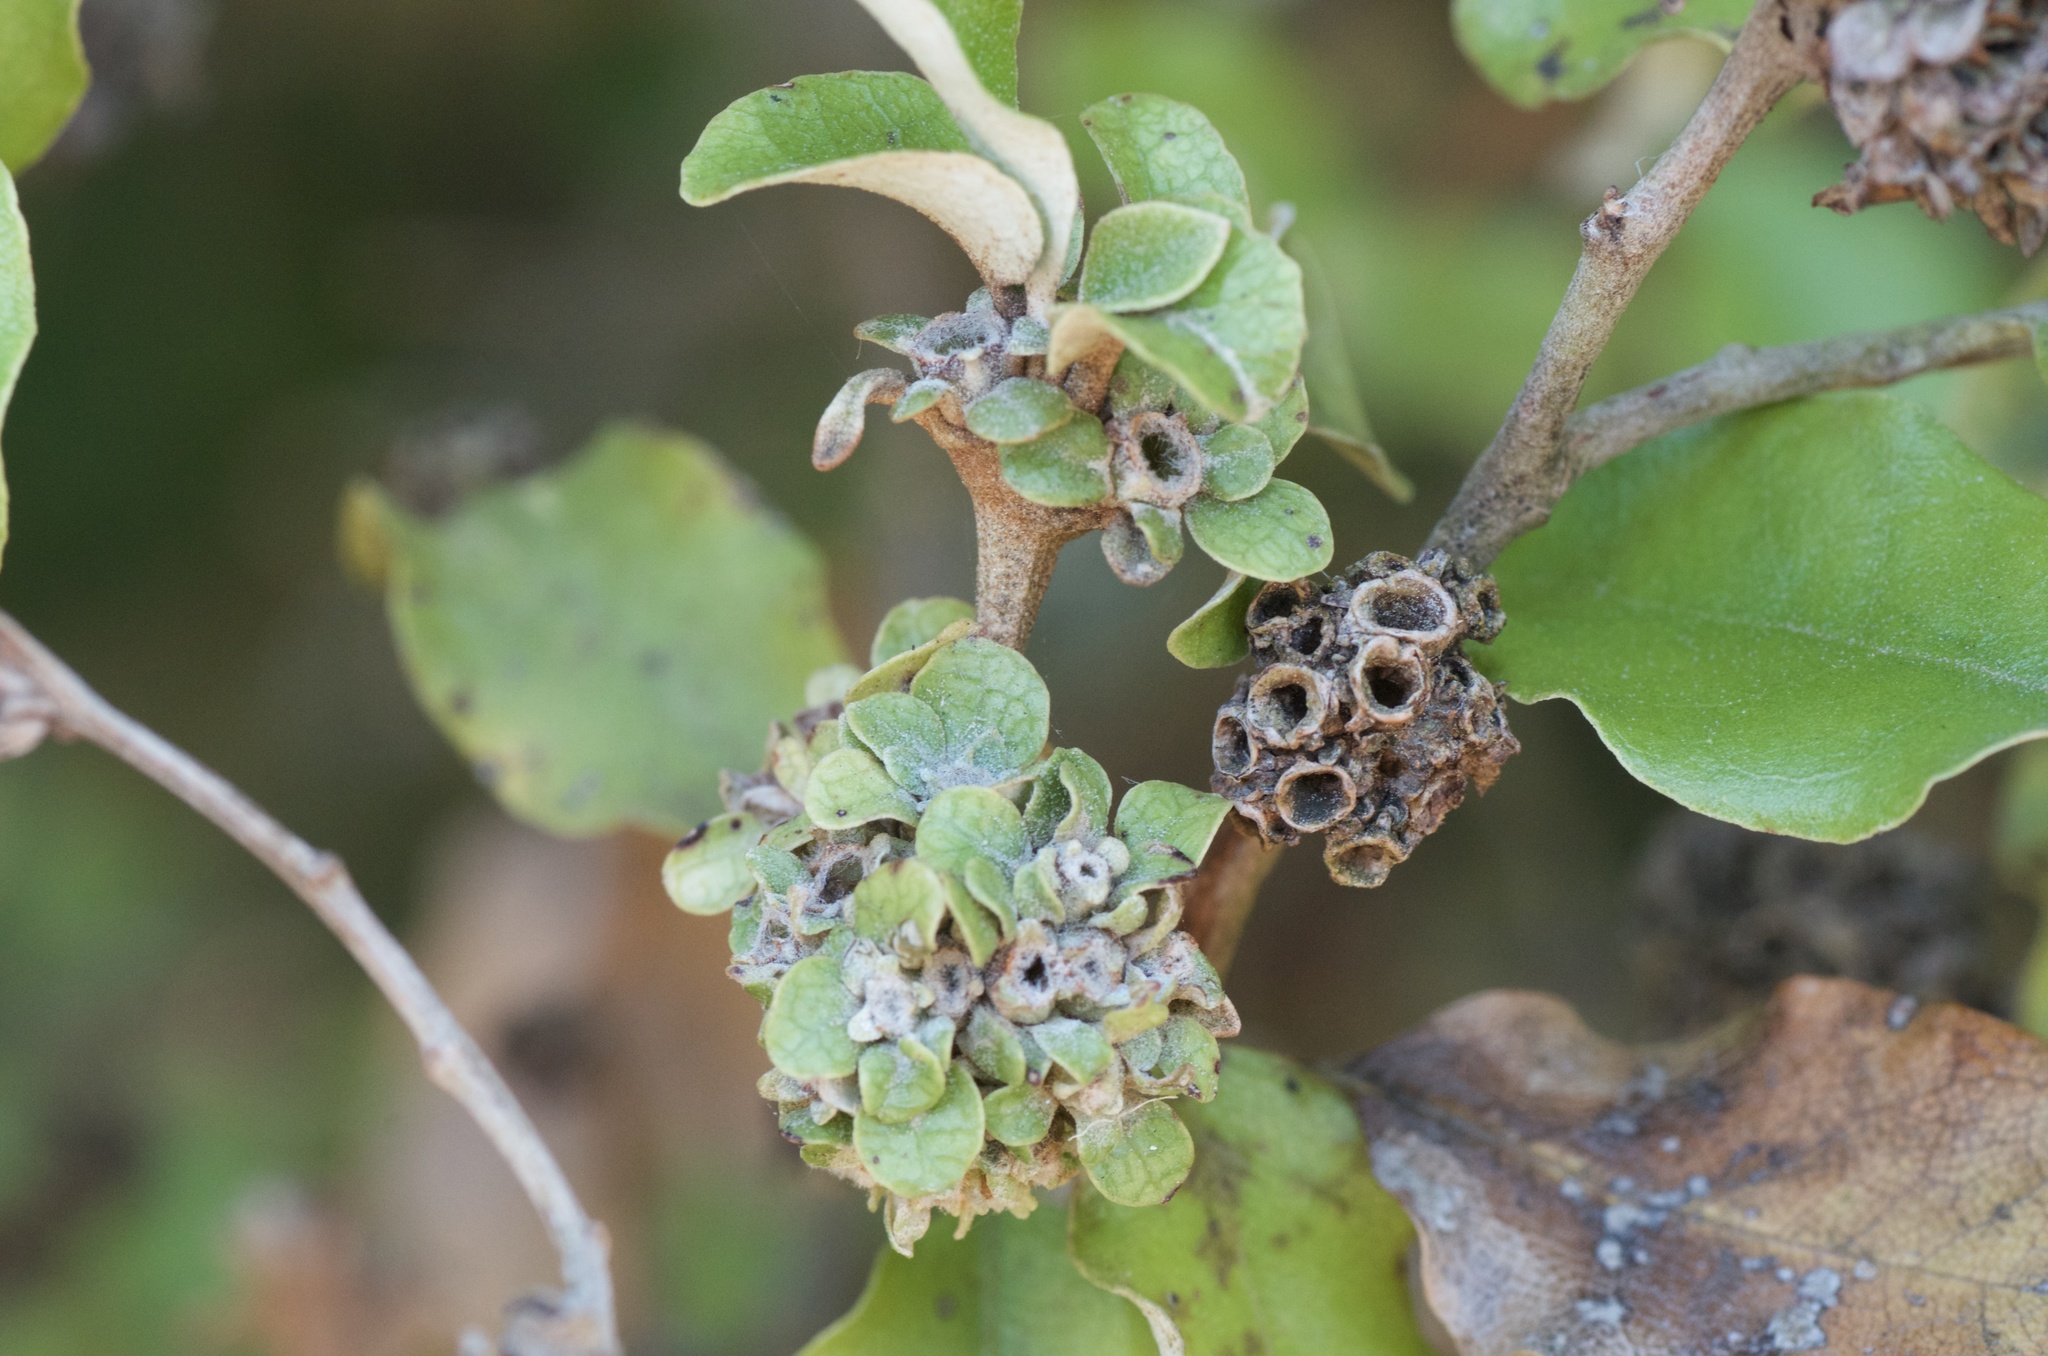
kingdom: Animalia
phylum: Arthropoda
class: Insecta
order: Diptera
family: Cecidomyiidae
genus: Oligotrophus
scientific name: Oligotrophus
